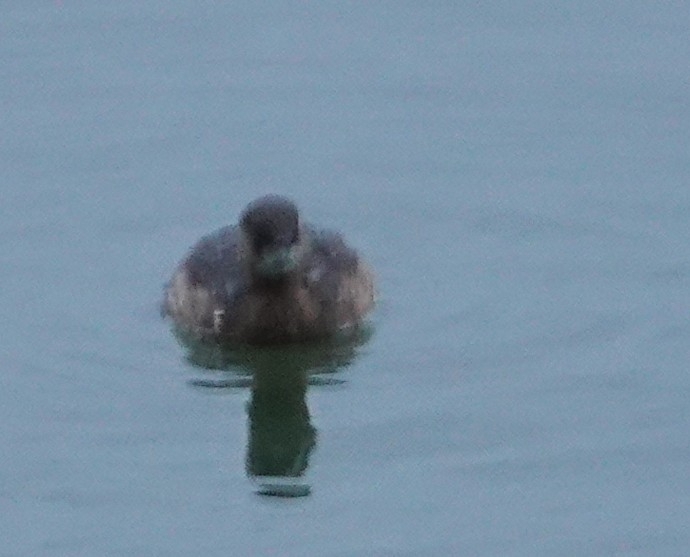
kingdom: Animalia
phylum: Chordata
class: Aves
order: Podicipediformes
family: Podicipedidae
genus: Tachybaptus
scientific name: Tachybaptus ruficollis
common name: Little grebe
